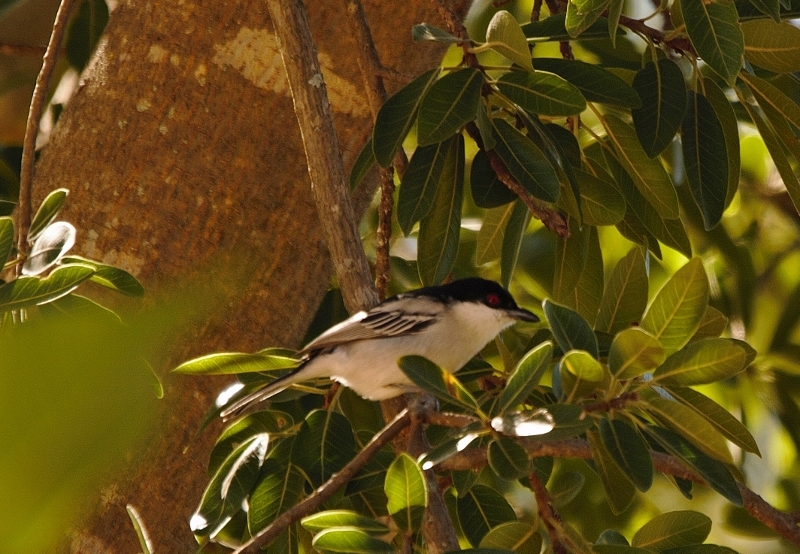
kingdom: Animalia
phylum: Chordata
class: Aves
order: Passeriformes
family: Malaconotidae
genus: Dryoscopus
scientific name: Dryoscopus cubla
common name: Black-backed puffback
